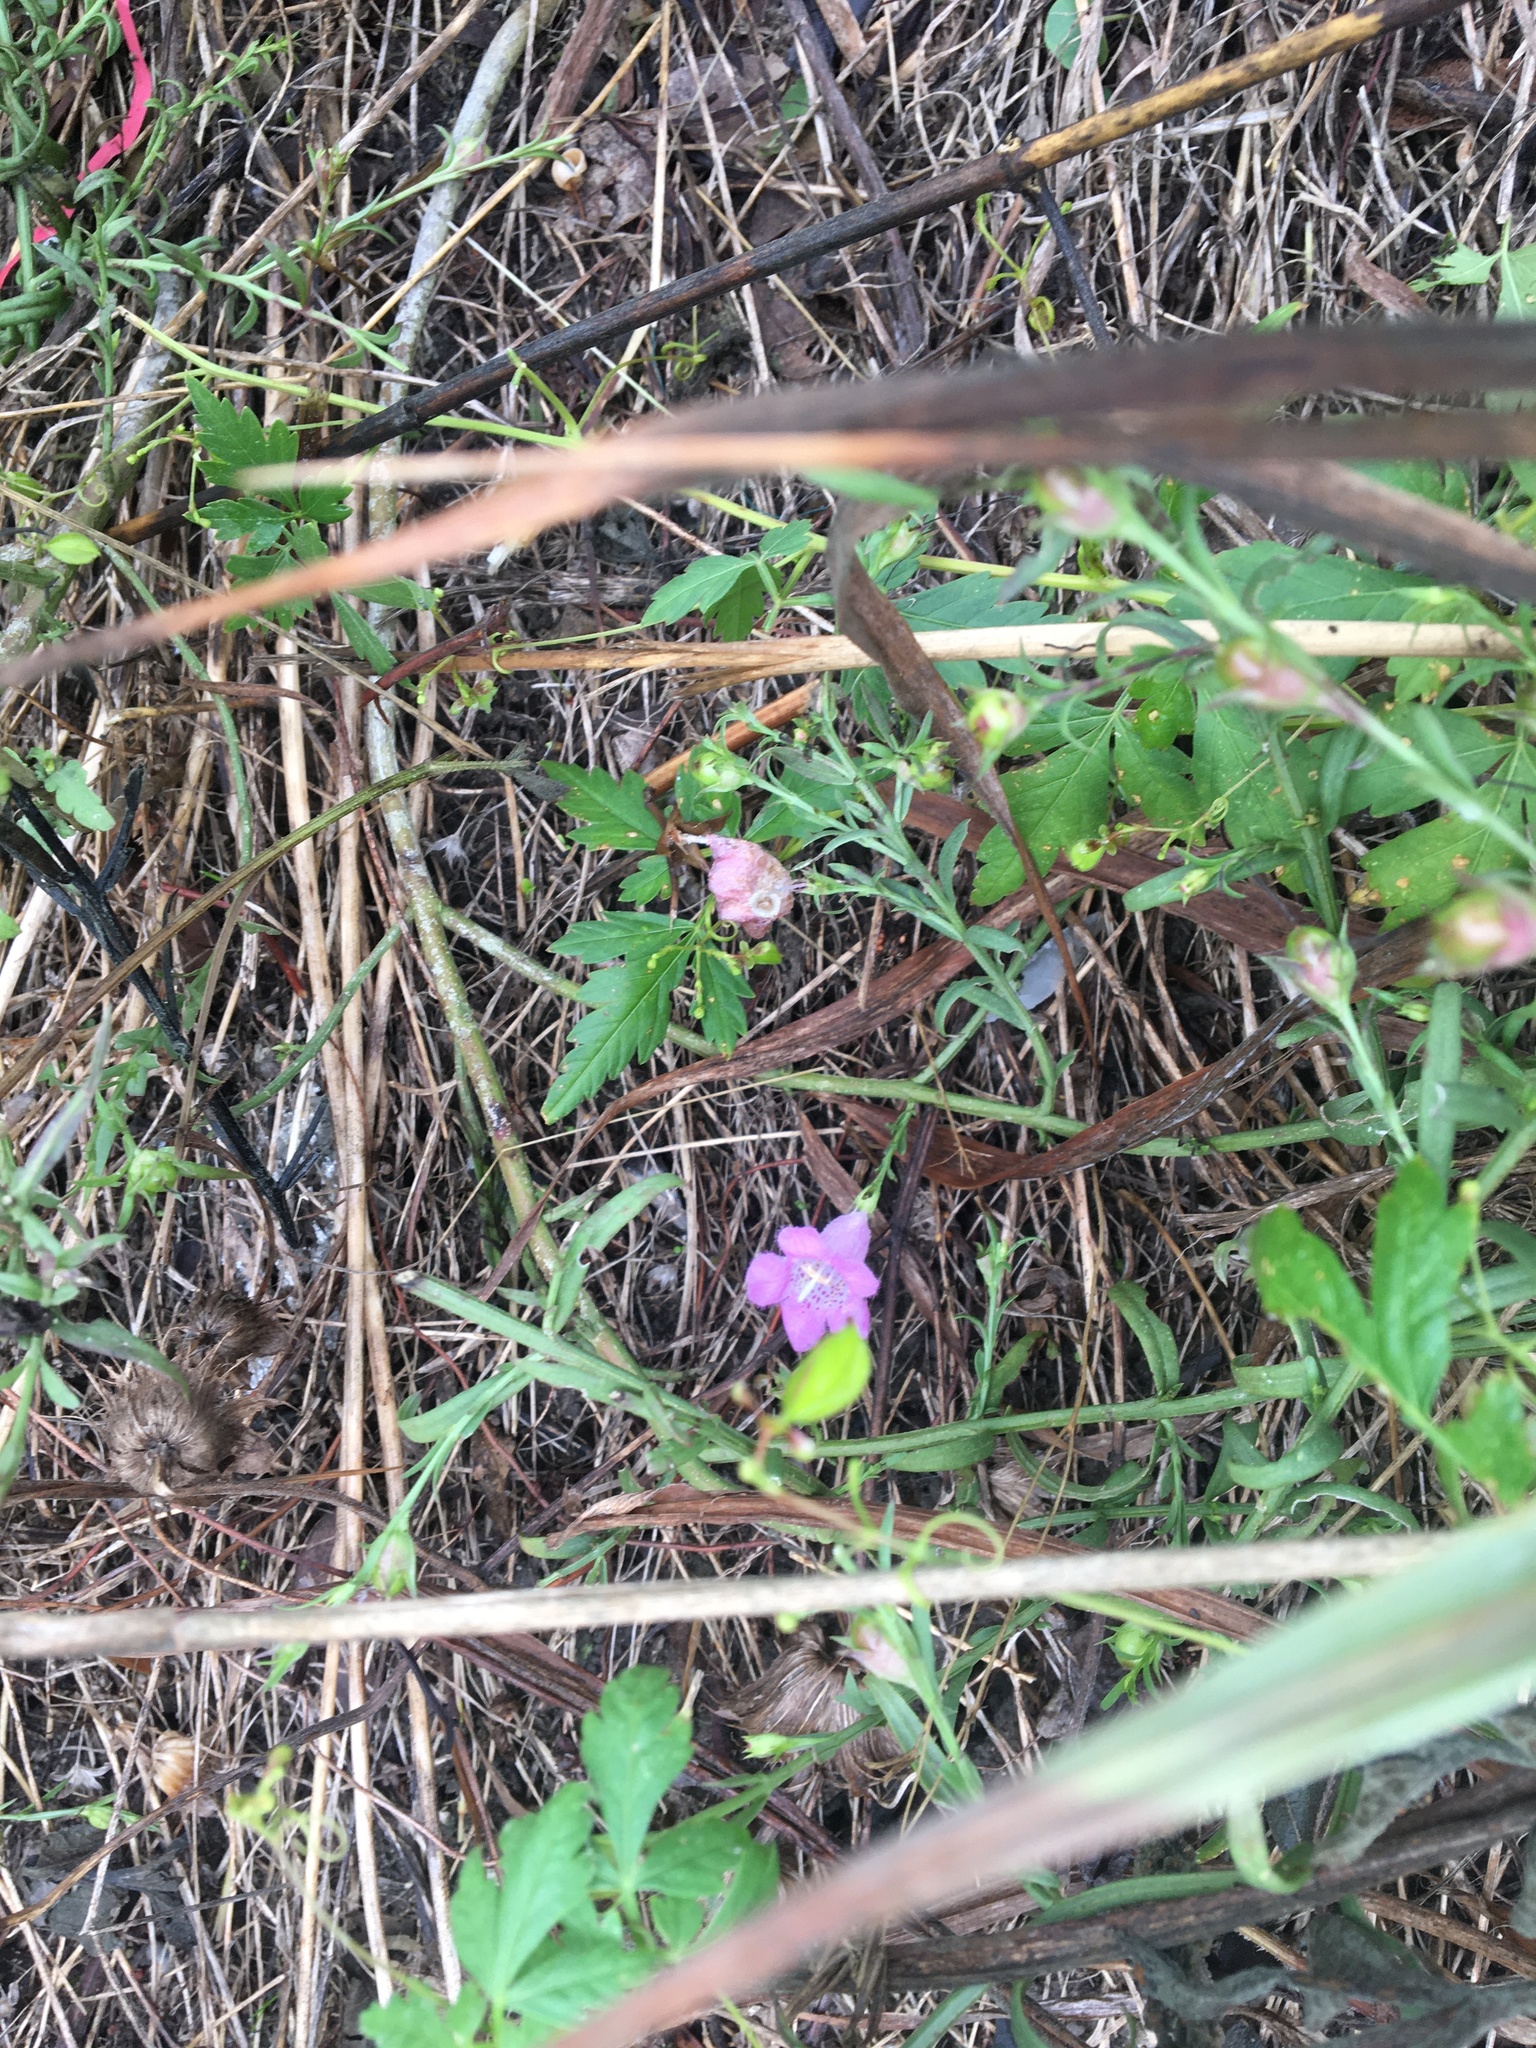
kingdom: Plantae
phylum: Tracheophyta
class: Magnoliopsida
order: Lamiales
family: Orobanchaceae
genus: Agalinis
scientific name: Agalinis heterophylla
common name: Prairie agalinis
